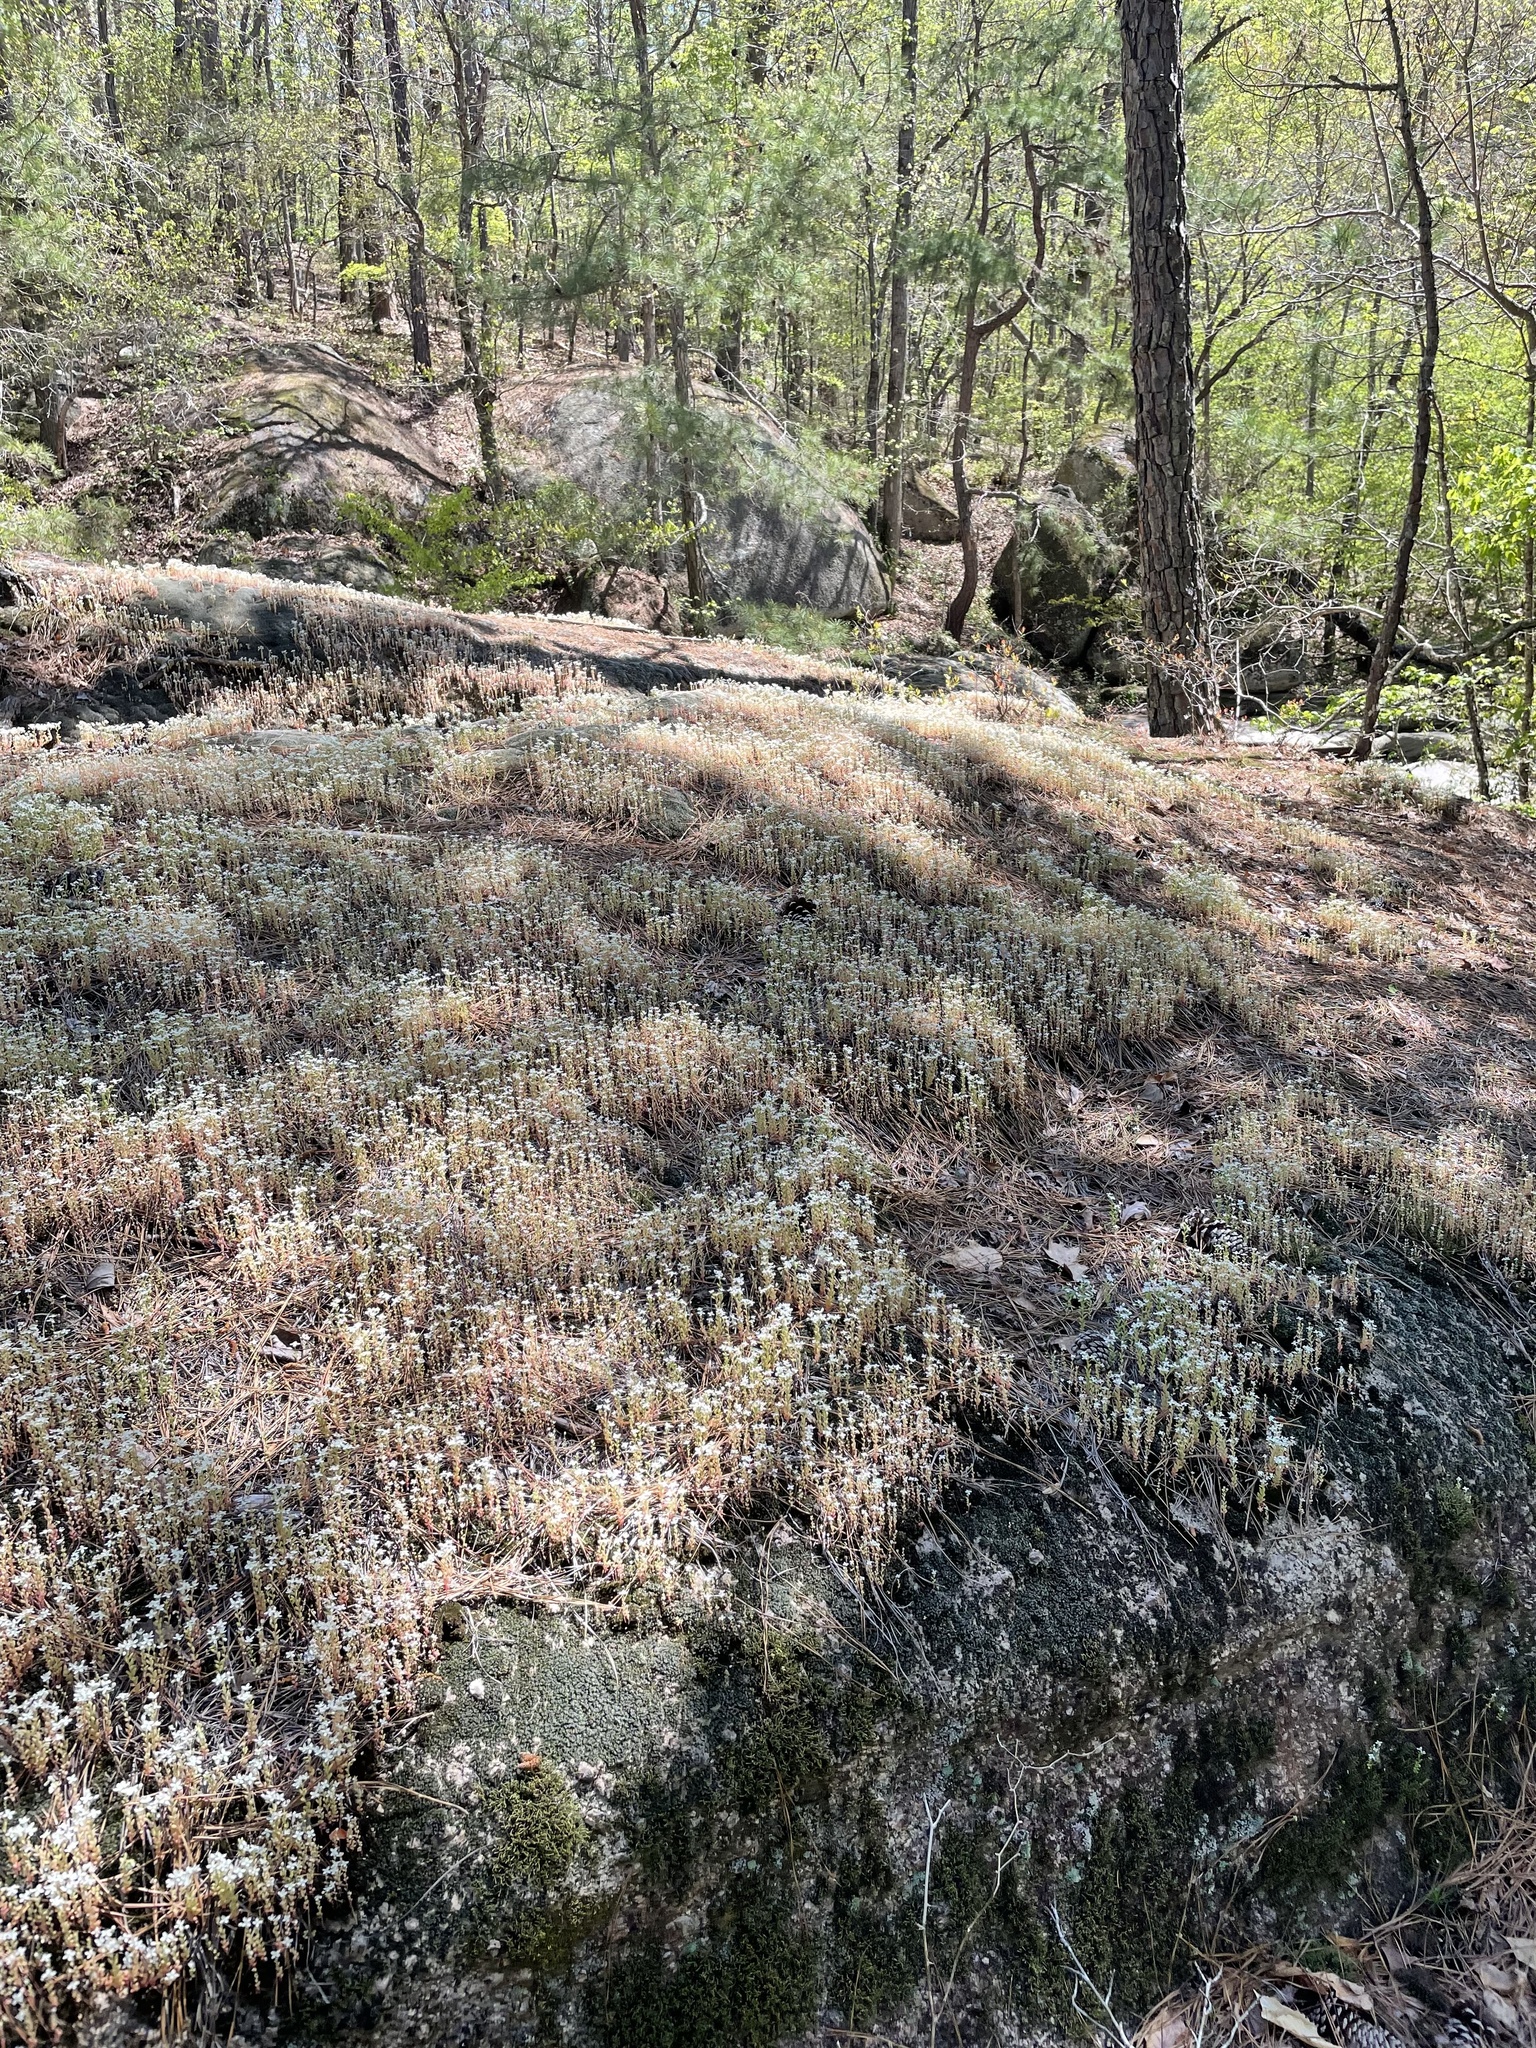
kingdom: Plantae
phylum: Tracheophyta
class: Magnoliopsida
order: Saxifragales
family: Crassulaceae
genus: Sedum
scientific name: Sedum pusillum
